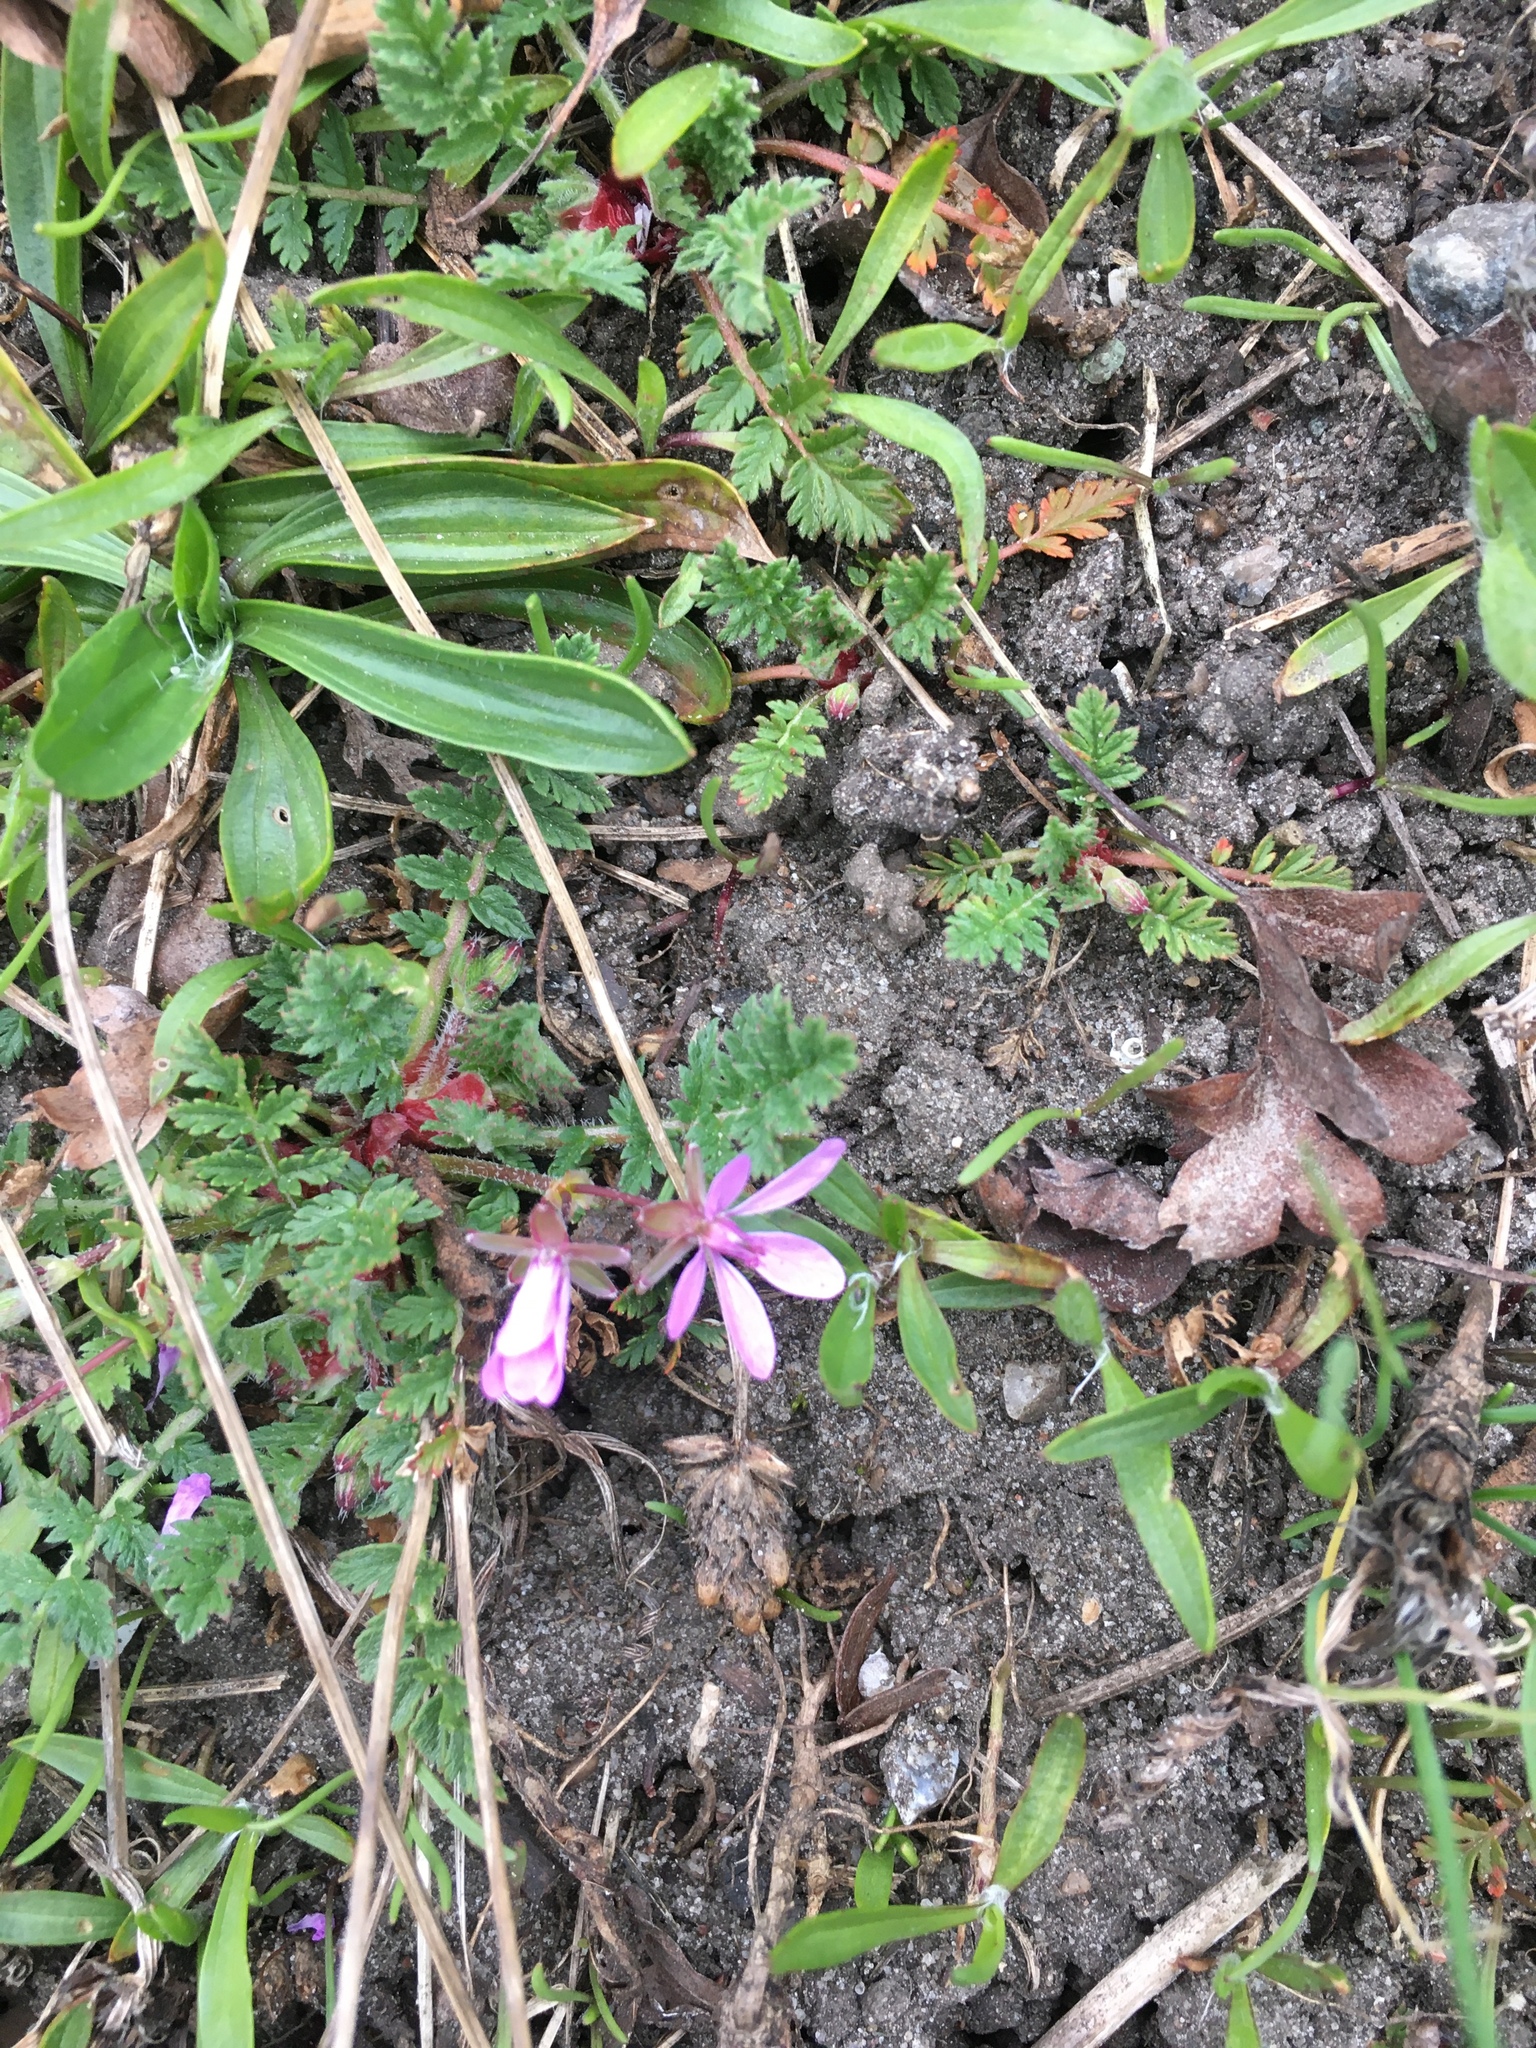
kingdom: Plantae
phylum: Tracheophyta
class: Magnoliopsida
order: Geraniales
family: Geraniaceae
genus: Erodium
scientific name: Erodium cicutarium
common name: Common stork's-bill
